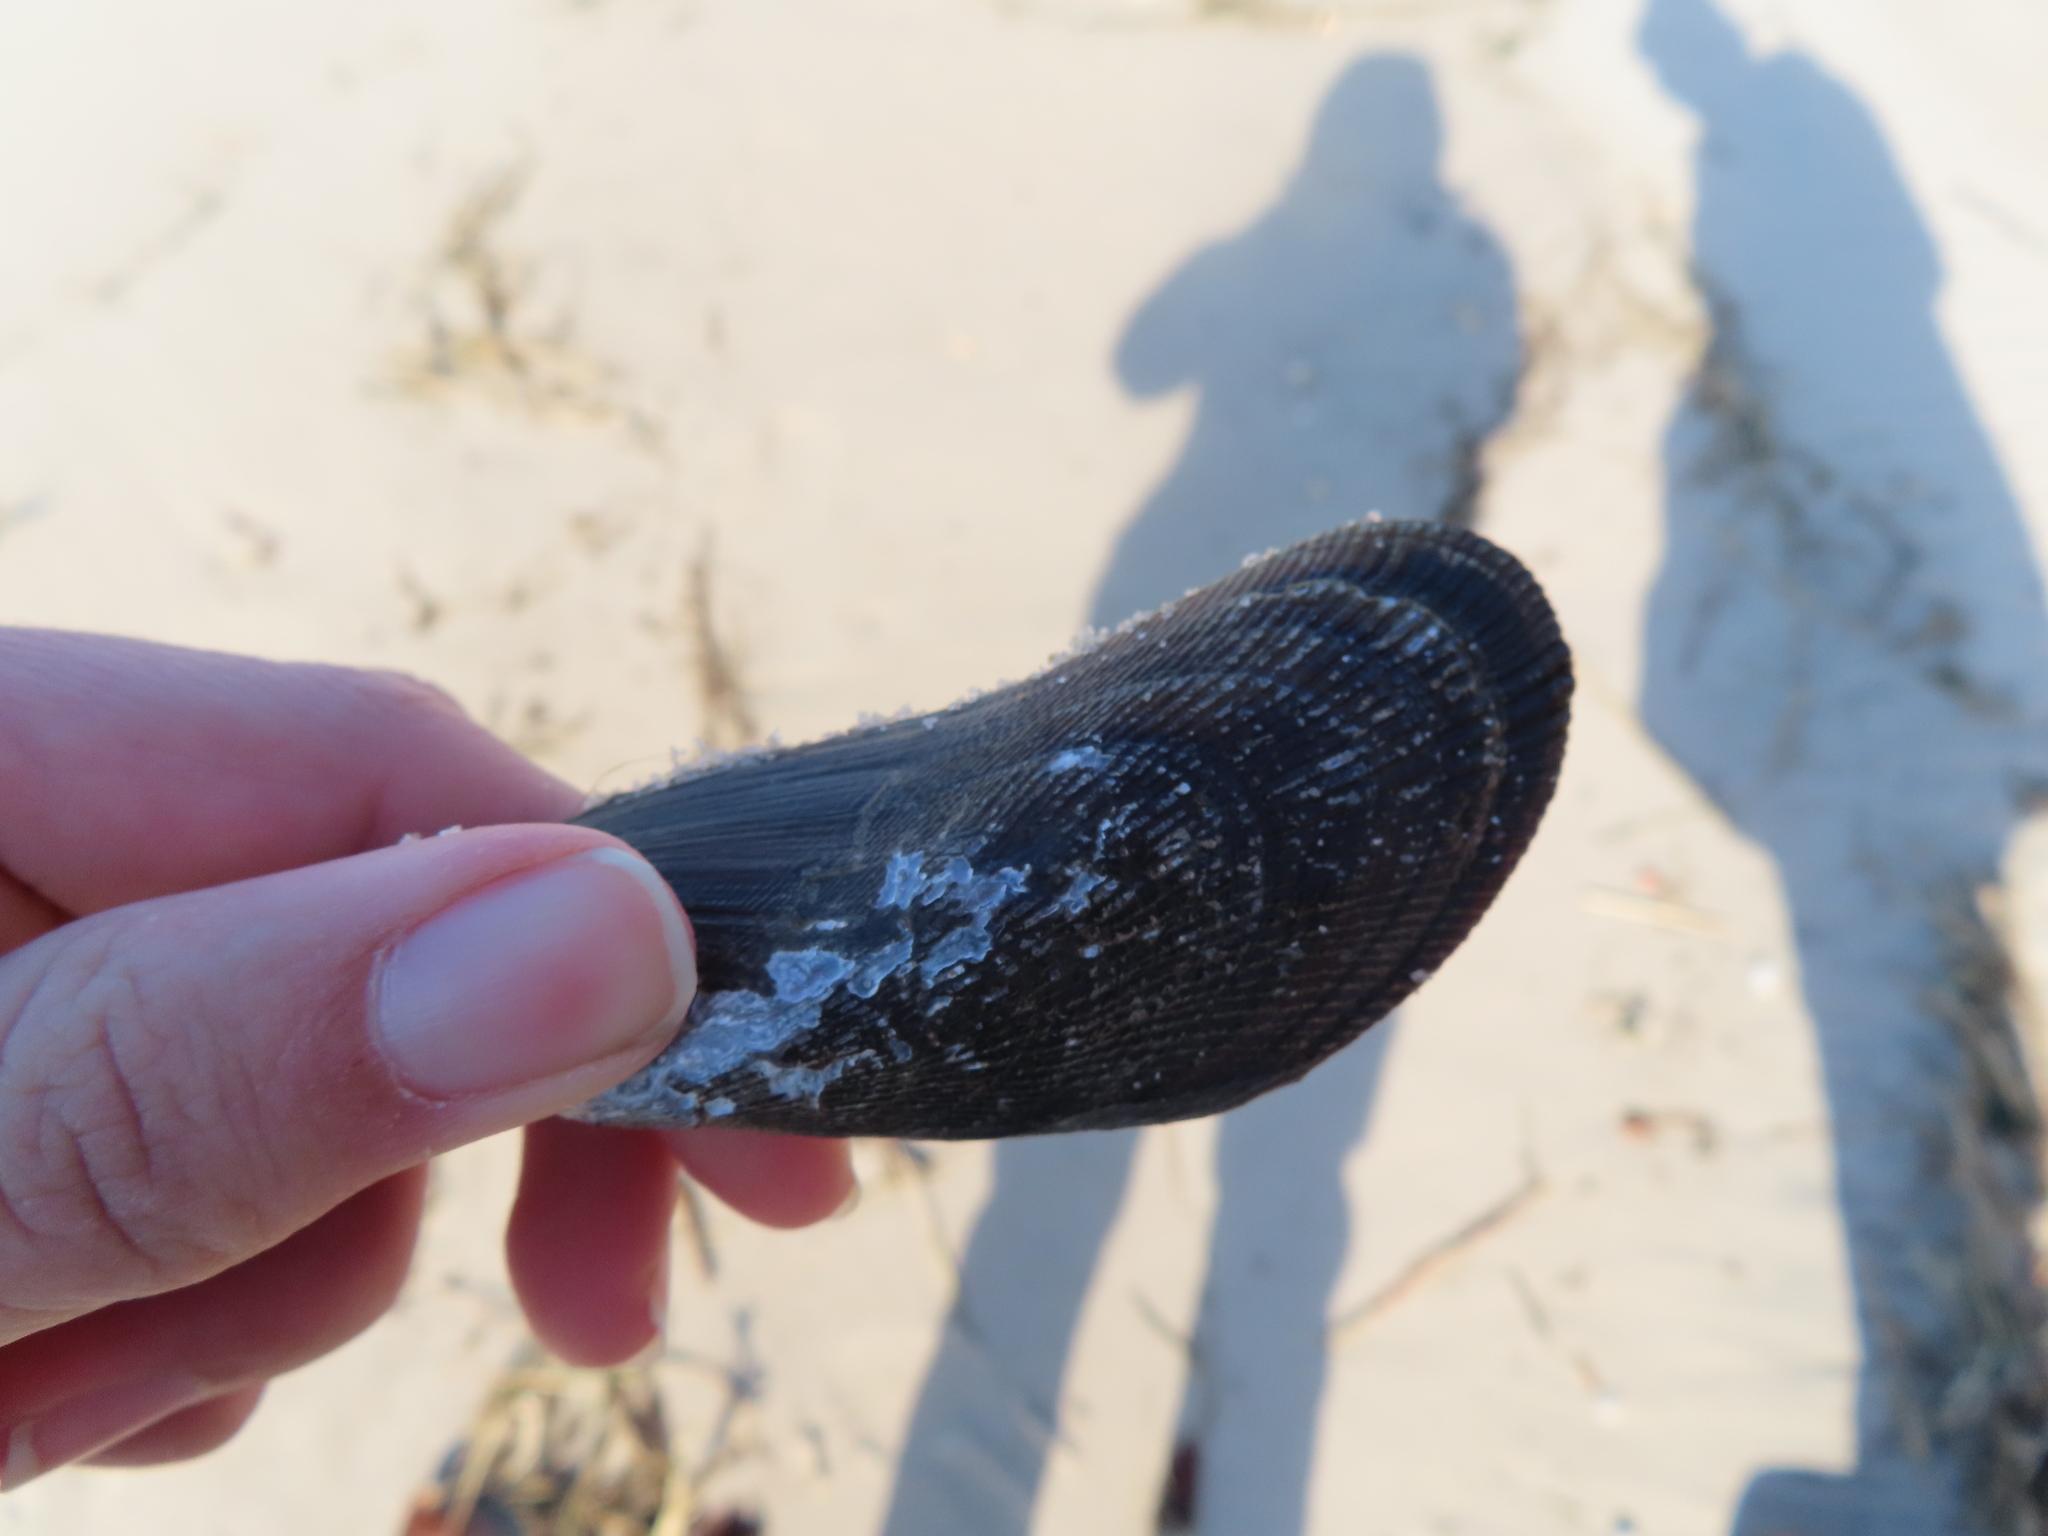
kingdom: Animalia
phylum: Mollusca
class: Bivalvia
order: Mytilida
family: Mytilidae
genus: Geukensia
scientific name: Geukensia demissa
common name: Ribbed mussel
